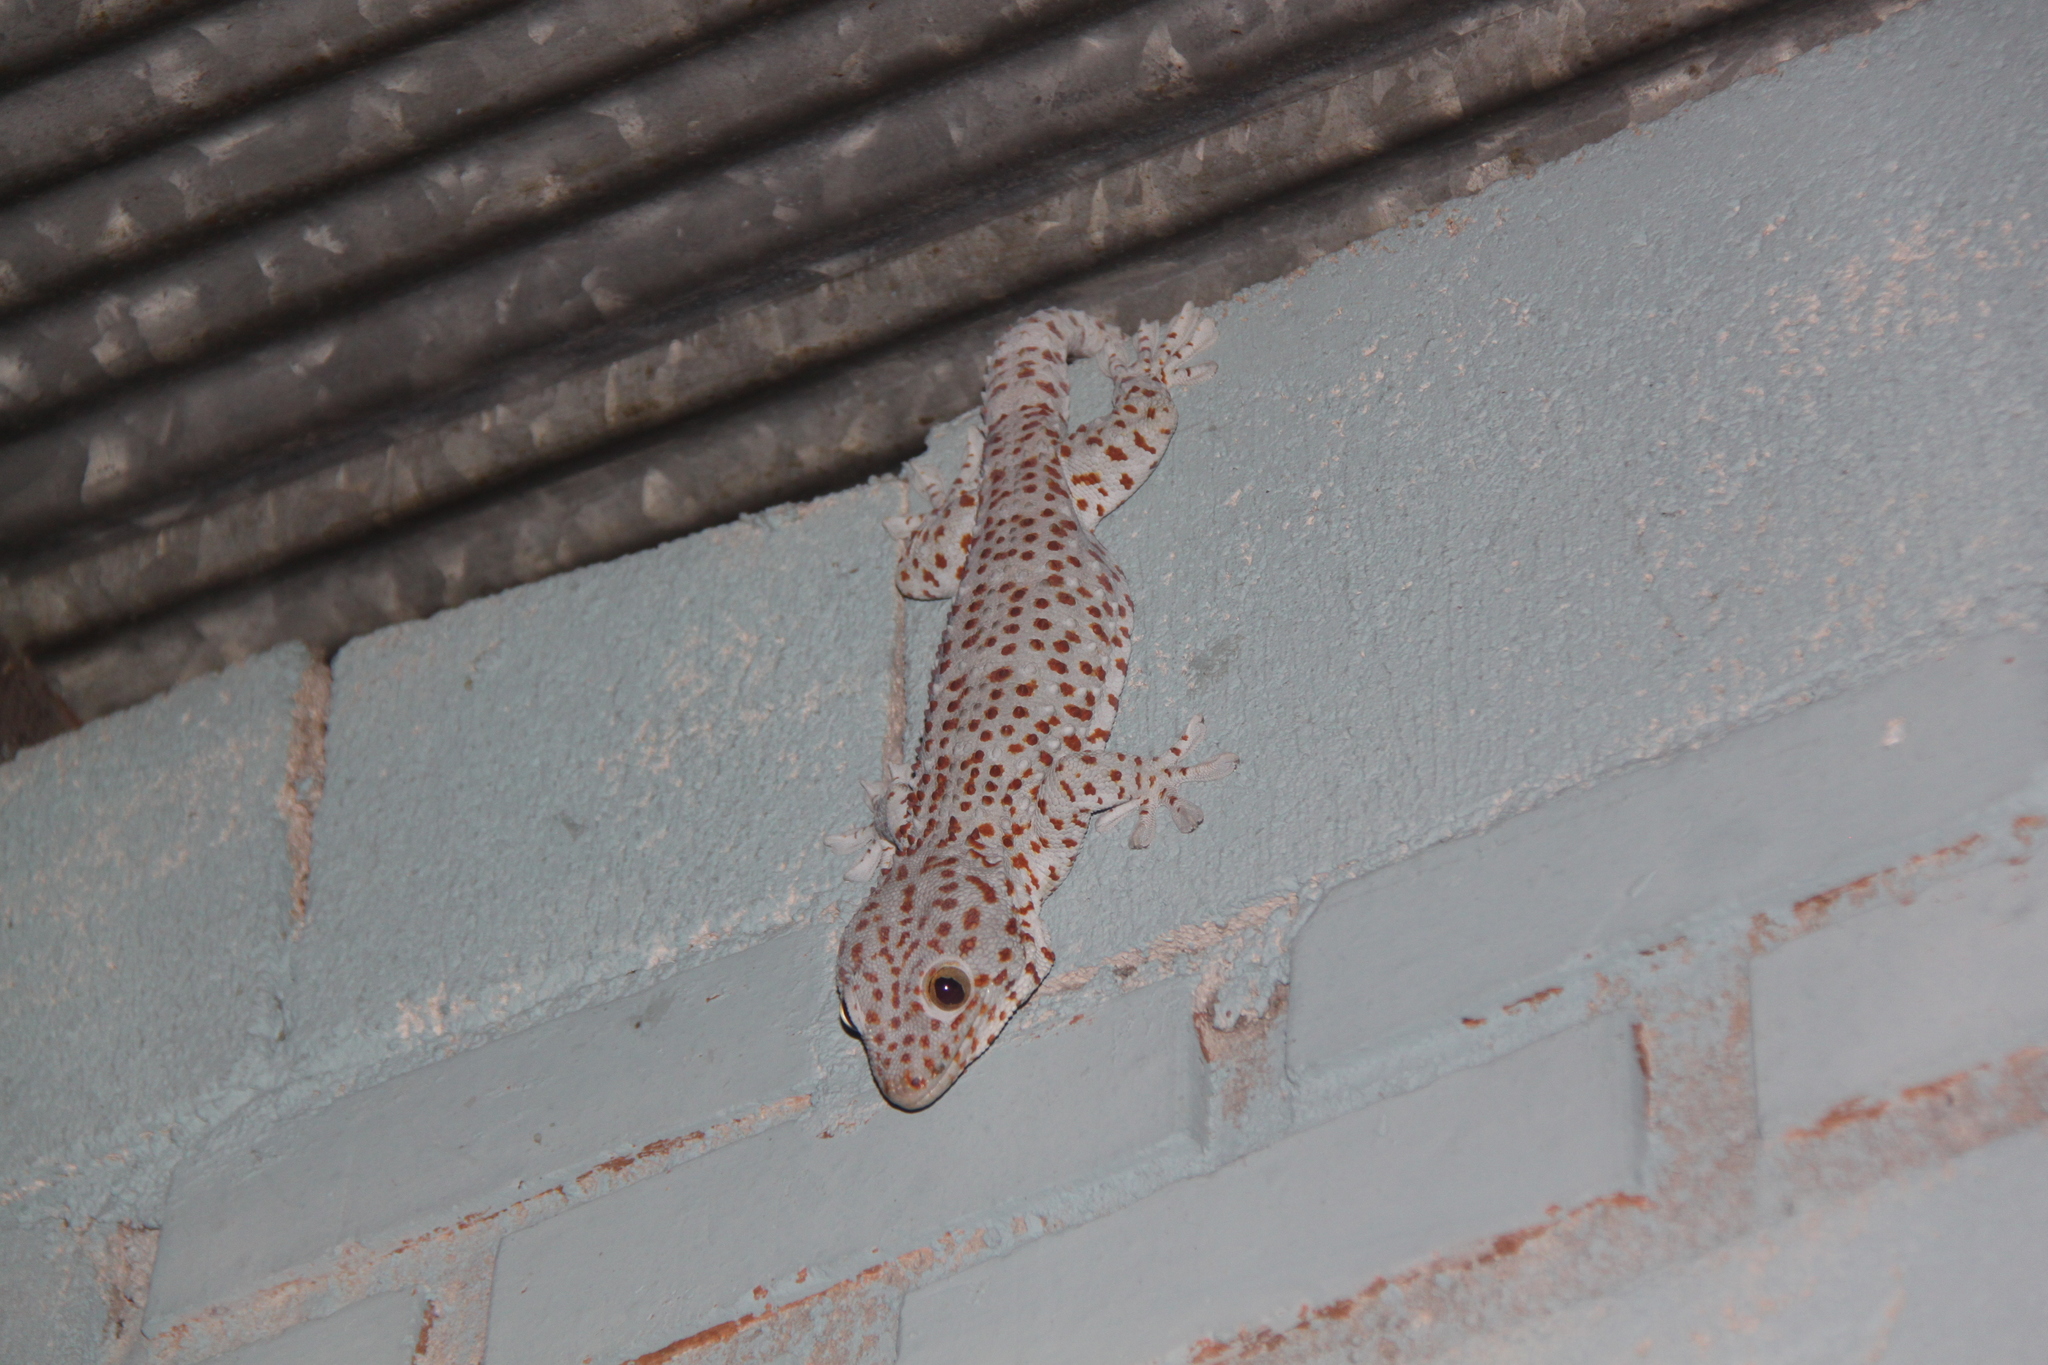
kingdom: Animalia
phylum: Chordata
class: Squamata
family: Gekkonidae
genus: Gekko
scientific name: Gekko gecko
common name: Tokay gecko
